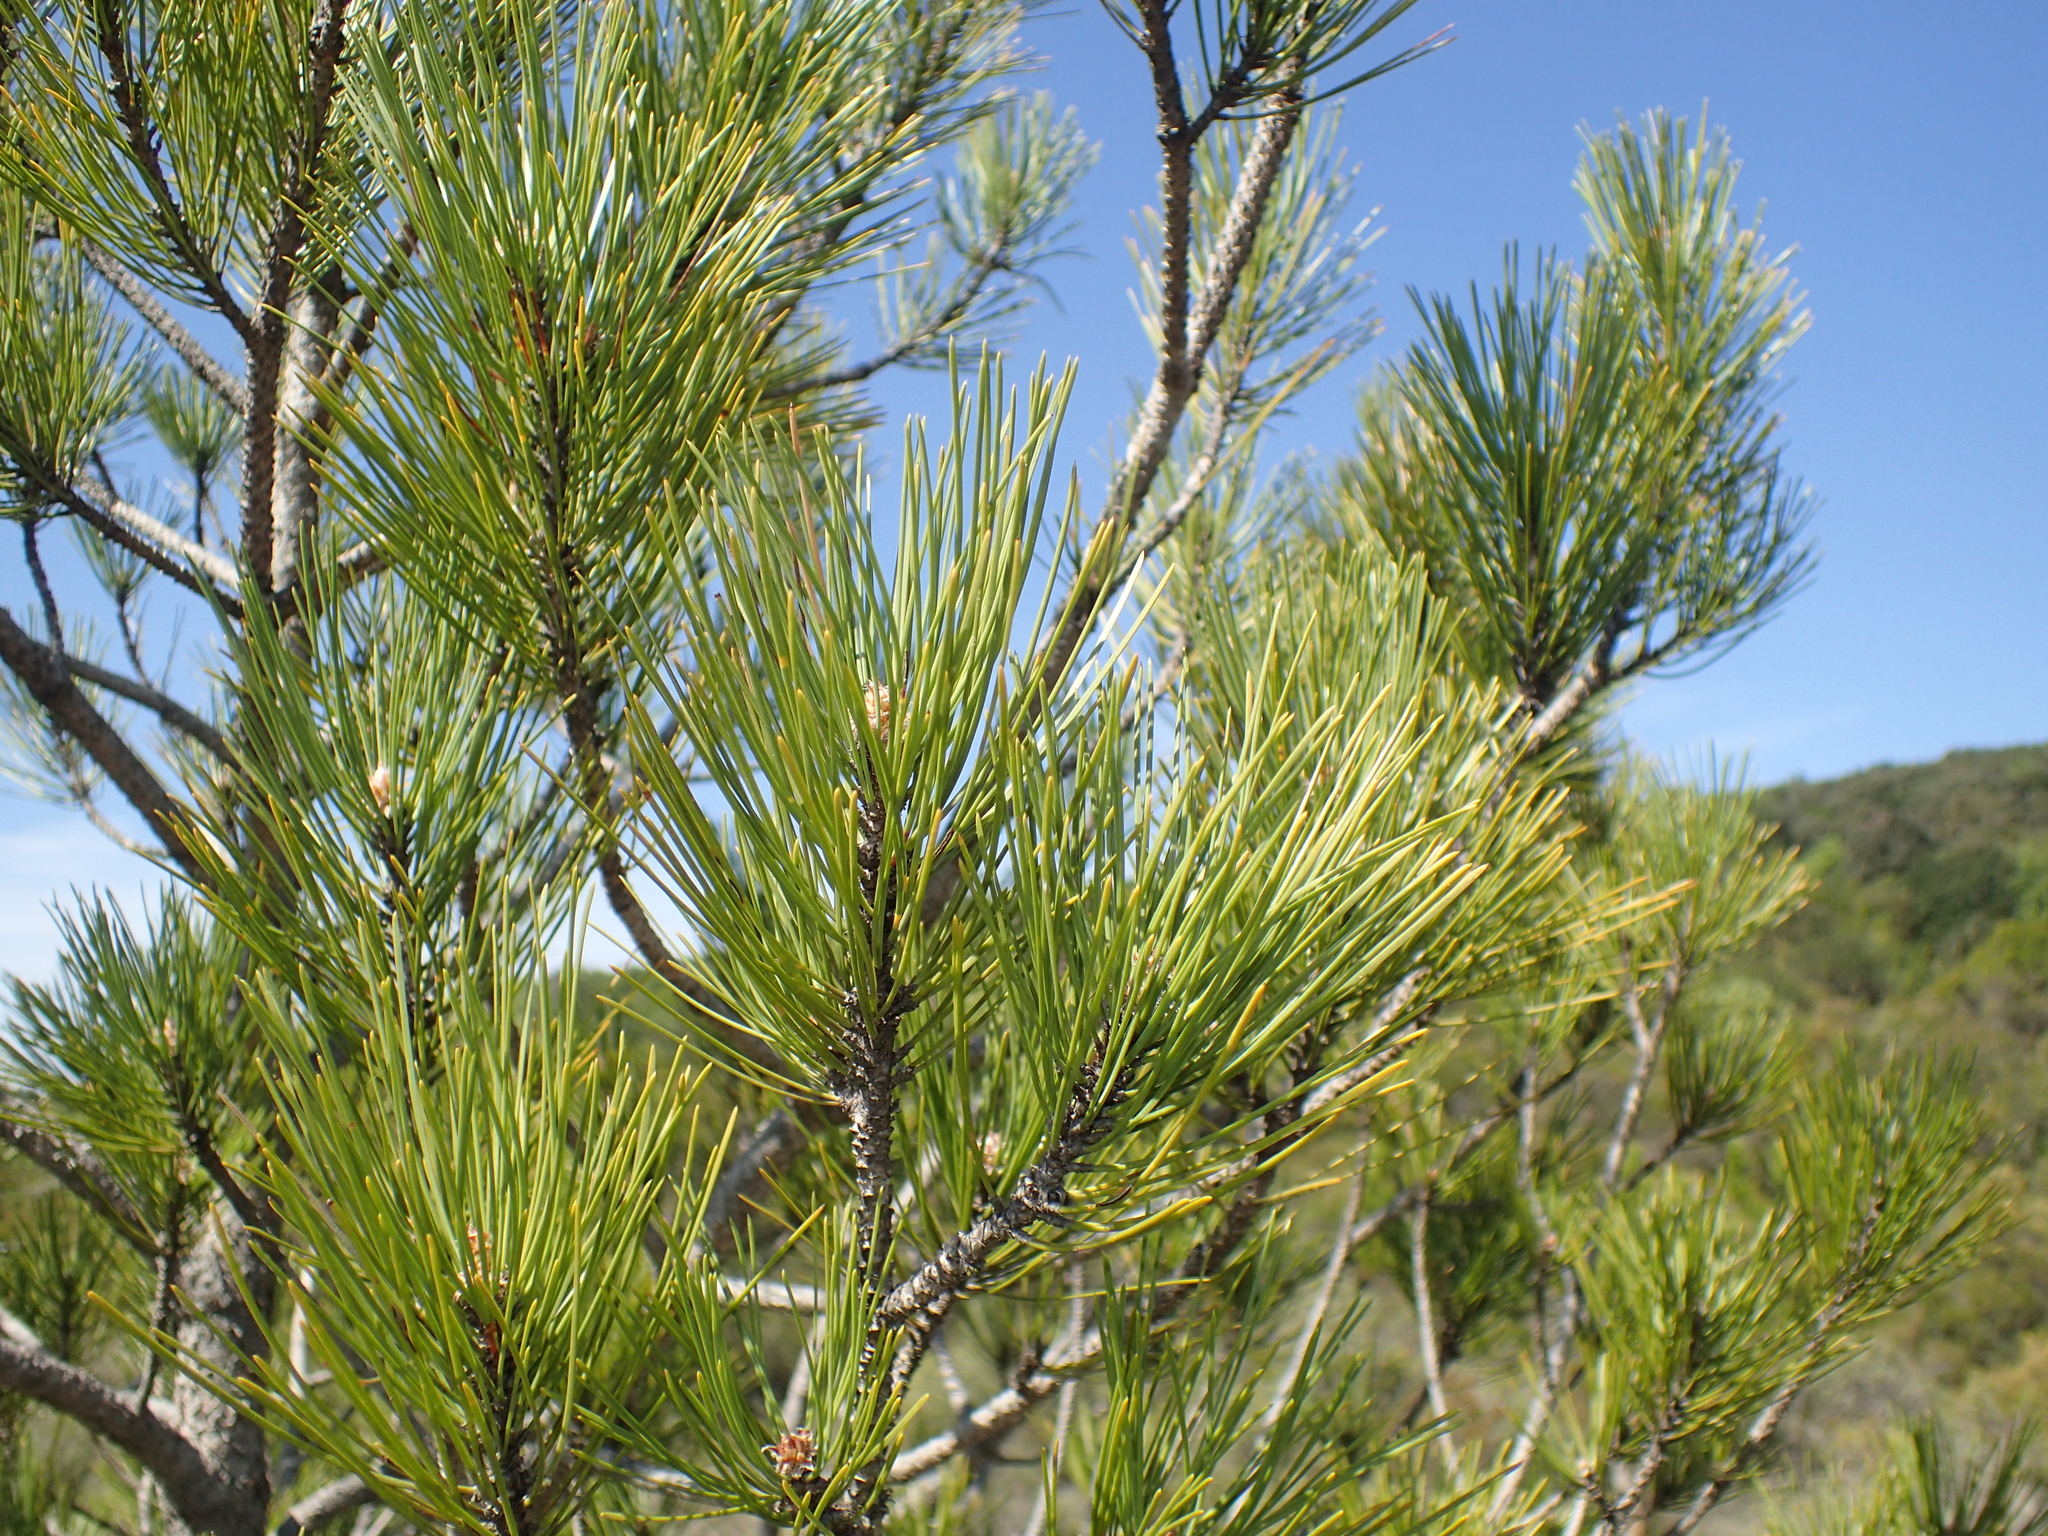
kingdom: Plantae
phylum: Tracheophyta
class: Pinopsida
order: Pinales
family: Pinaceae
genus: Pinus
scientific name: Pinus halepensis
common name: Aleppo pine
